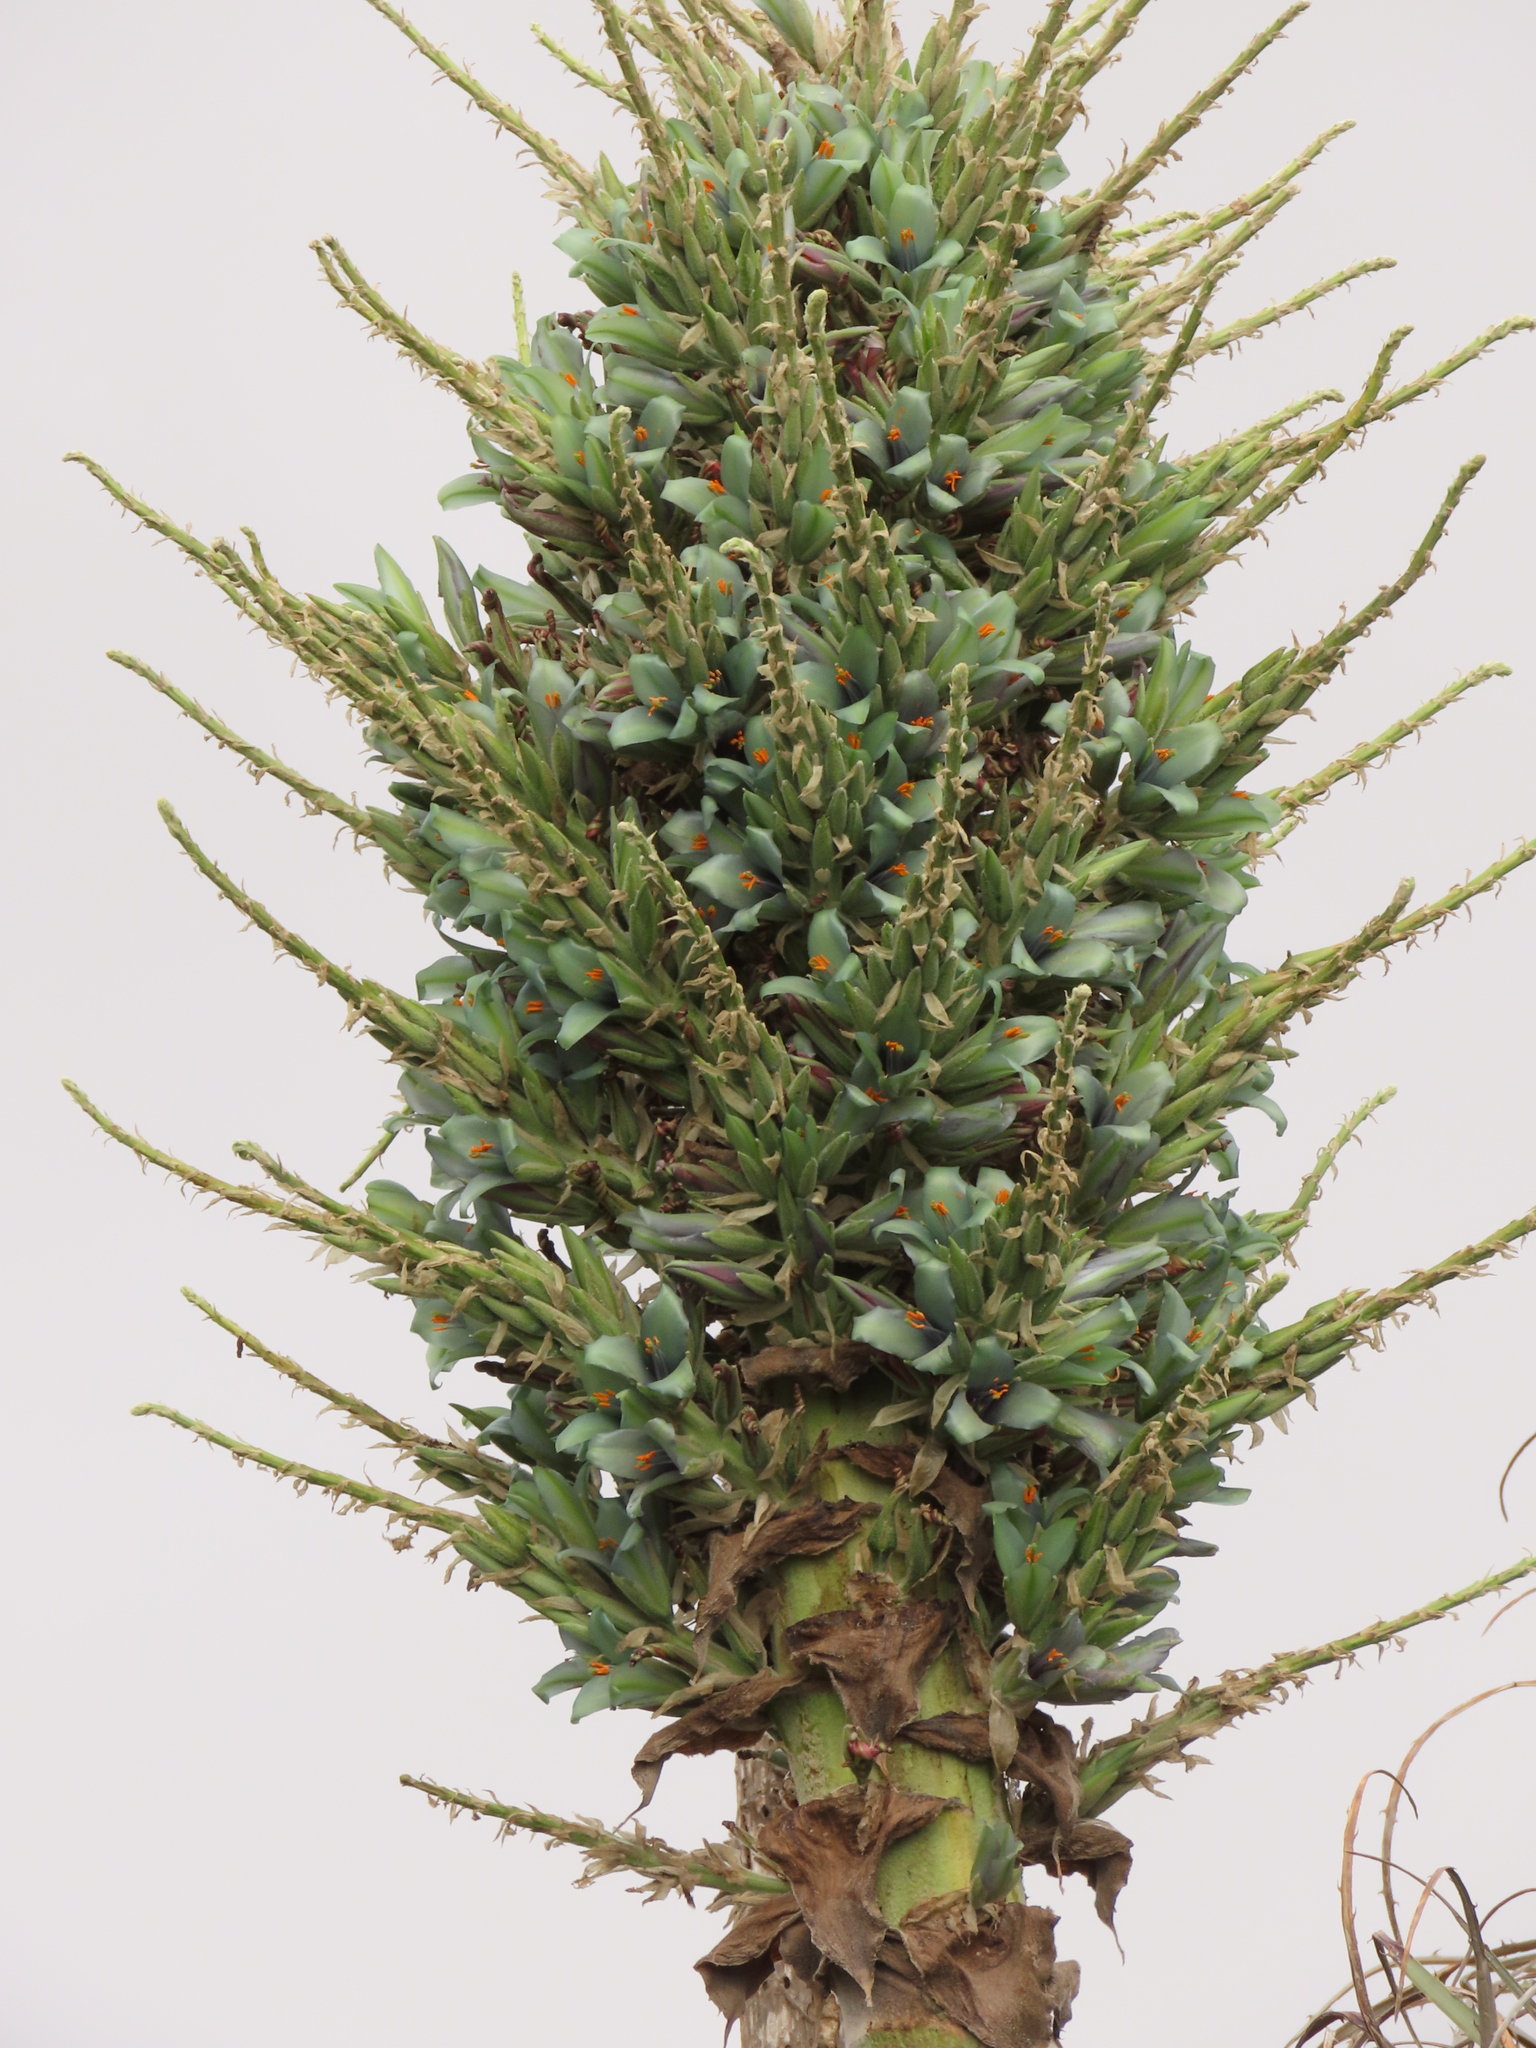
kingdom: Plantae
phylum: Tracheophyta
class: Liliopsida
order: Poales
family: Bromeliaceae
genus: Puya
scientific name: Puya alpestris
